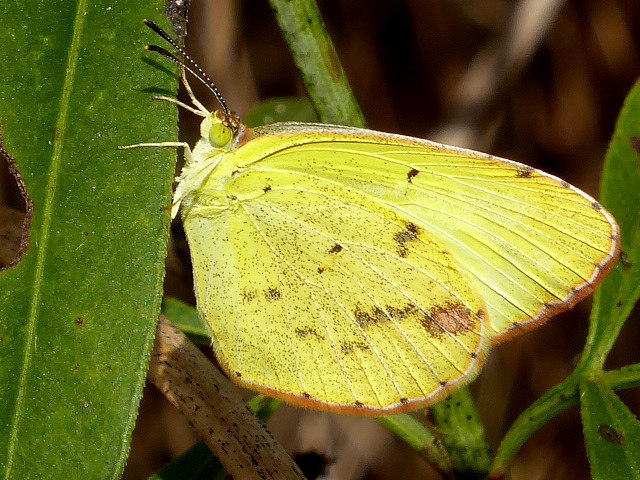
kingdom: Animalia
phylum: Arthropoda
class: Insecta
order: Lepidoptera
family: Pieridae
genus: Pyrisitia
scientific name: Pyrisitia lisa
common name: Little yellow
